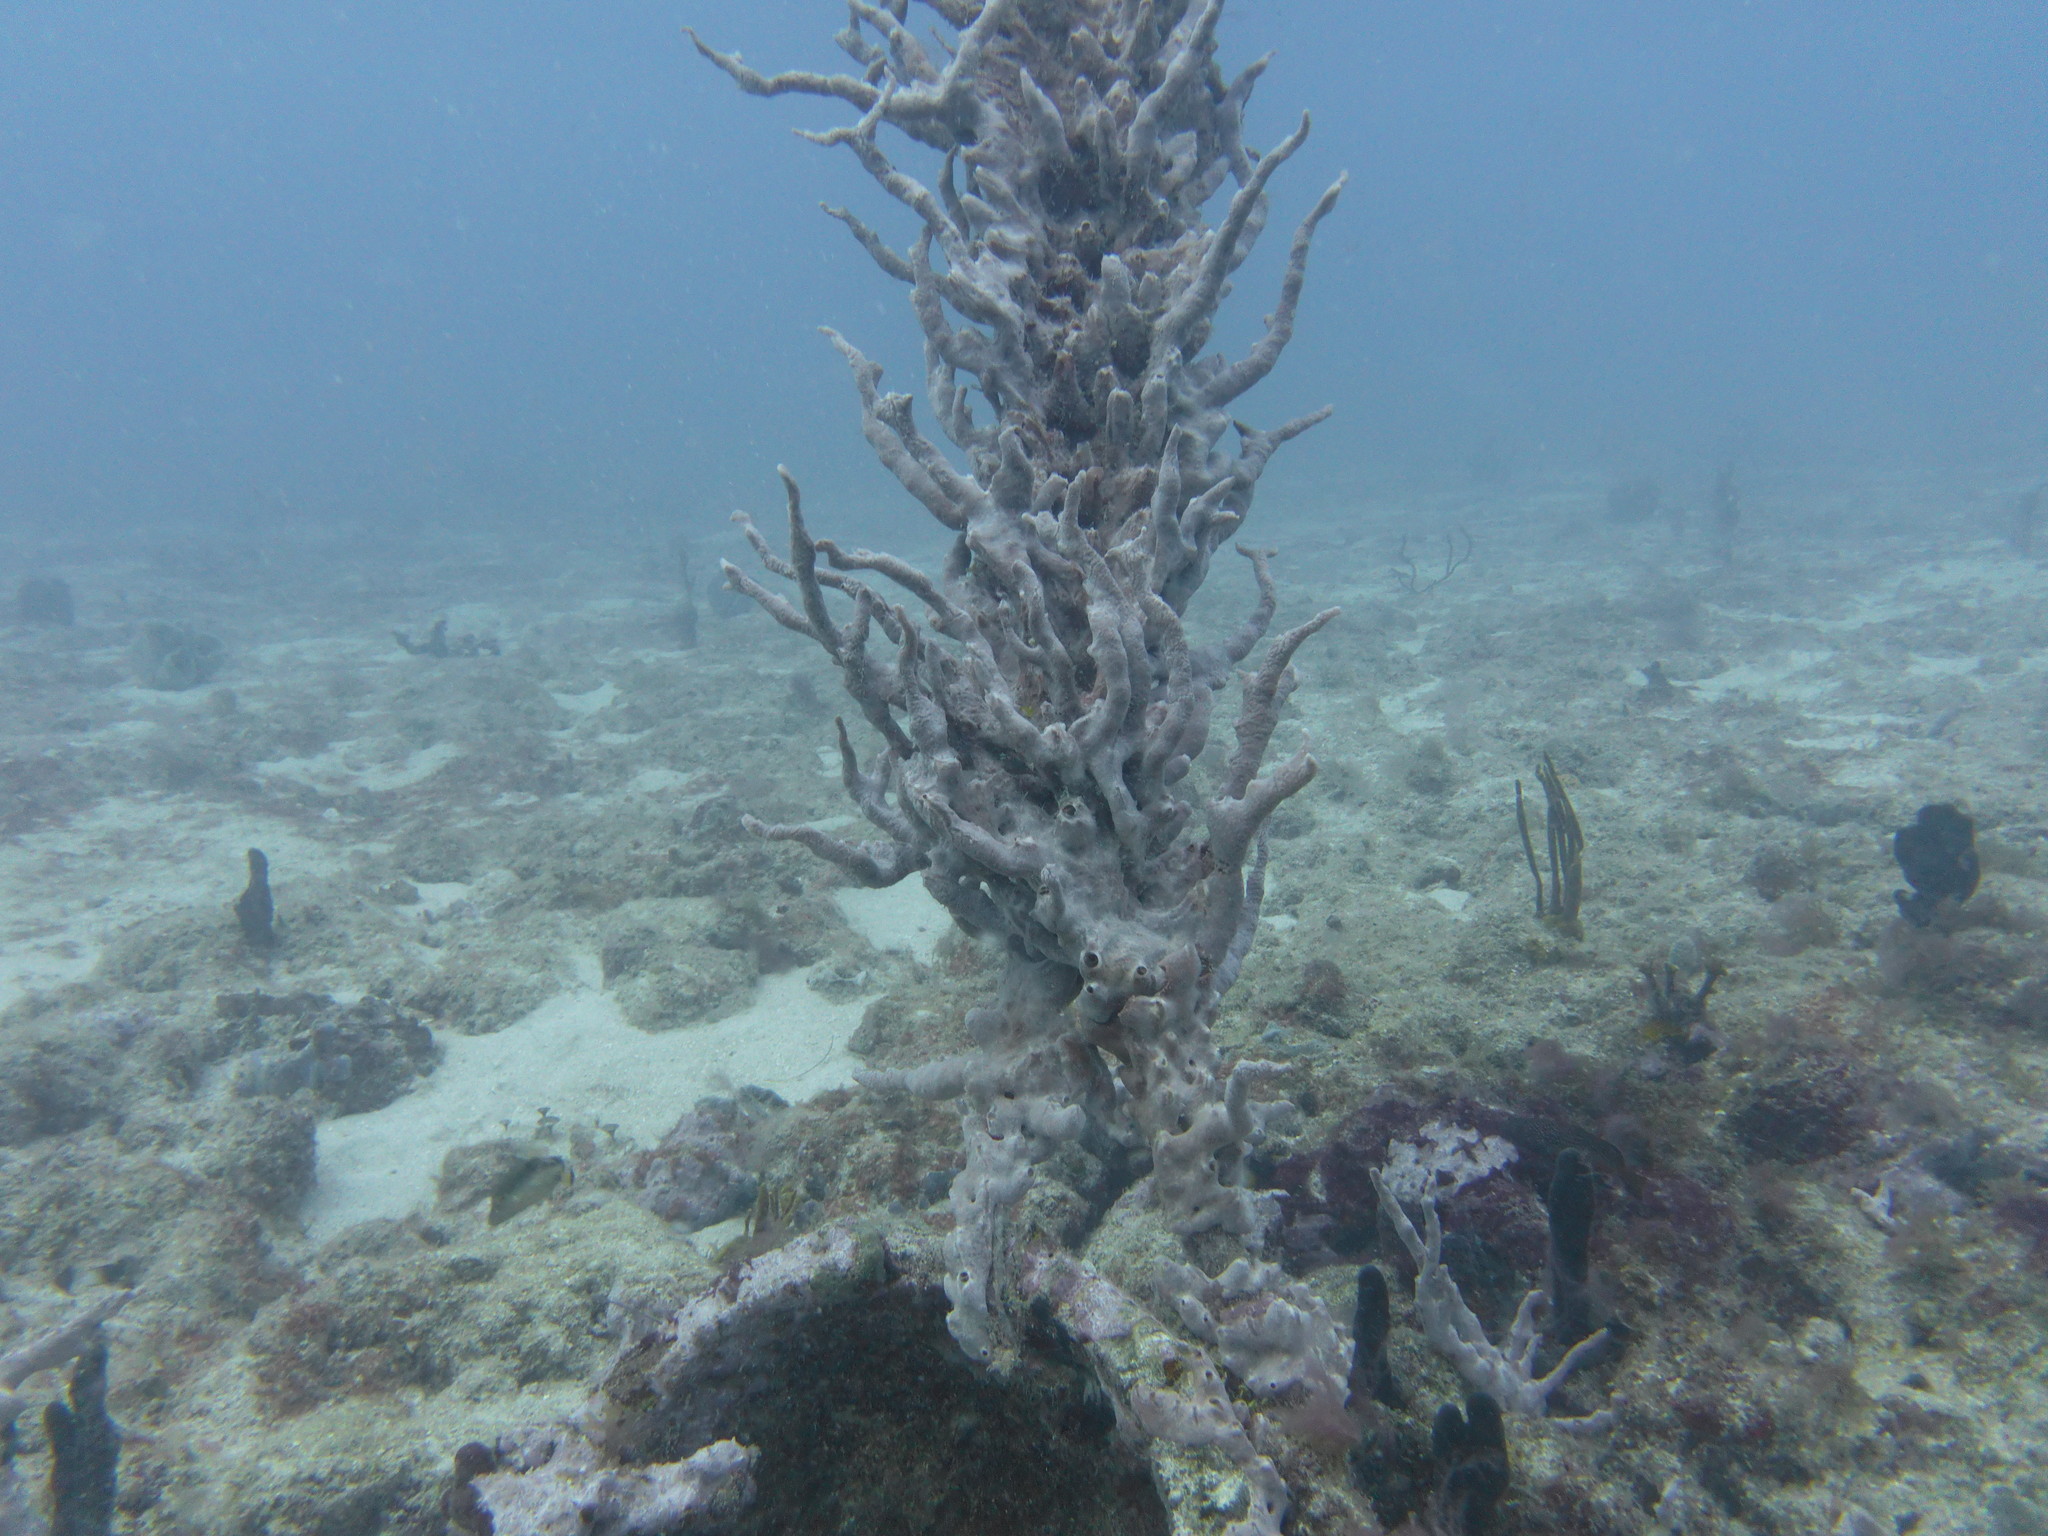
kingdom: Animalia
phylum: Porifera
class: Demospongiae
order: Poecilosclerida
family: Desmacididae
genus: Desmapsamma
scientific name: Desmapsamma anchorata
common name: Lumpy overgrowing sponge
